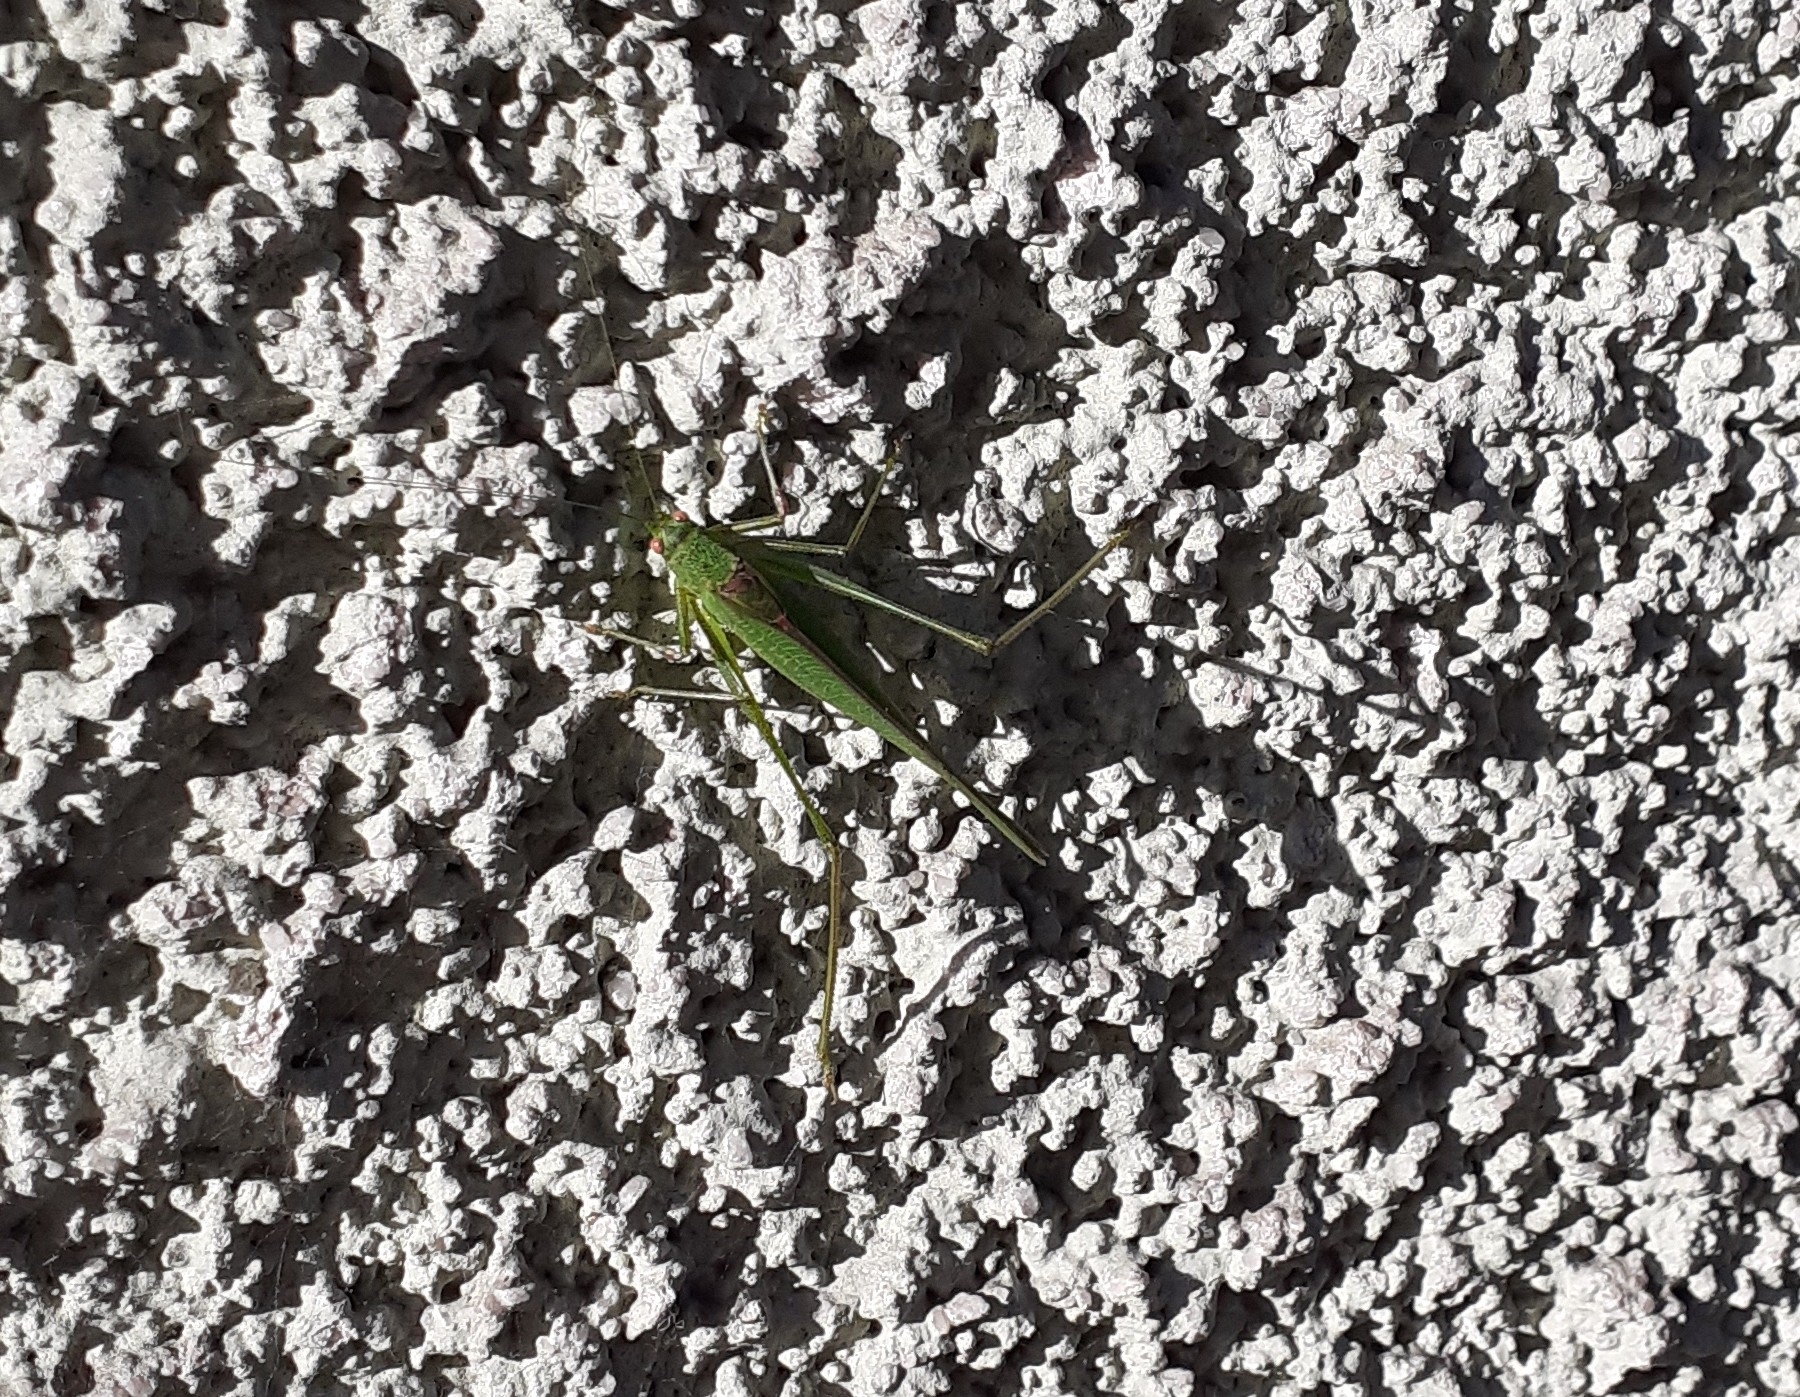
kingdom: Animalia
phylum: Arthropoda
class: Insecta
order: Orthoptera
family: Tettigoniidae
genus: Phaneroptera
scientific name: Phaneroptera nana
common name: Southern sickle bush-cricket
